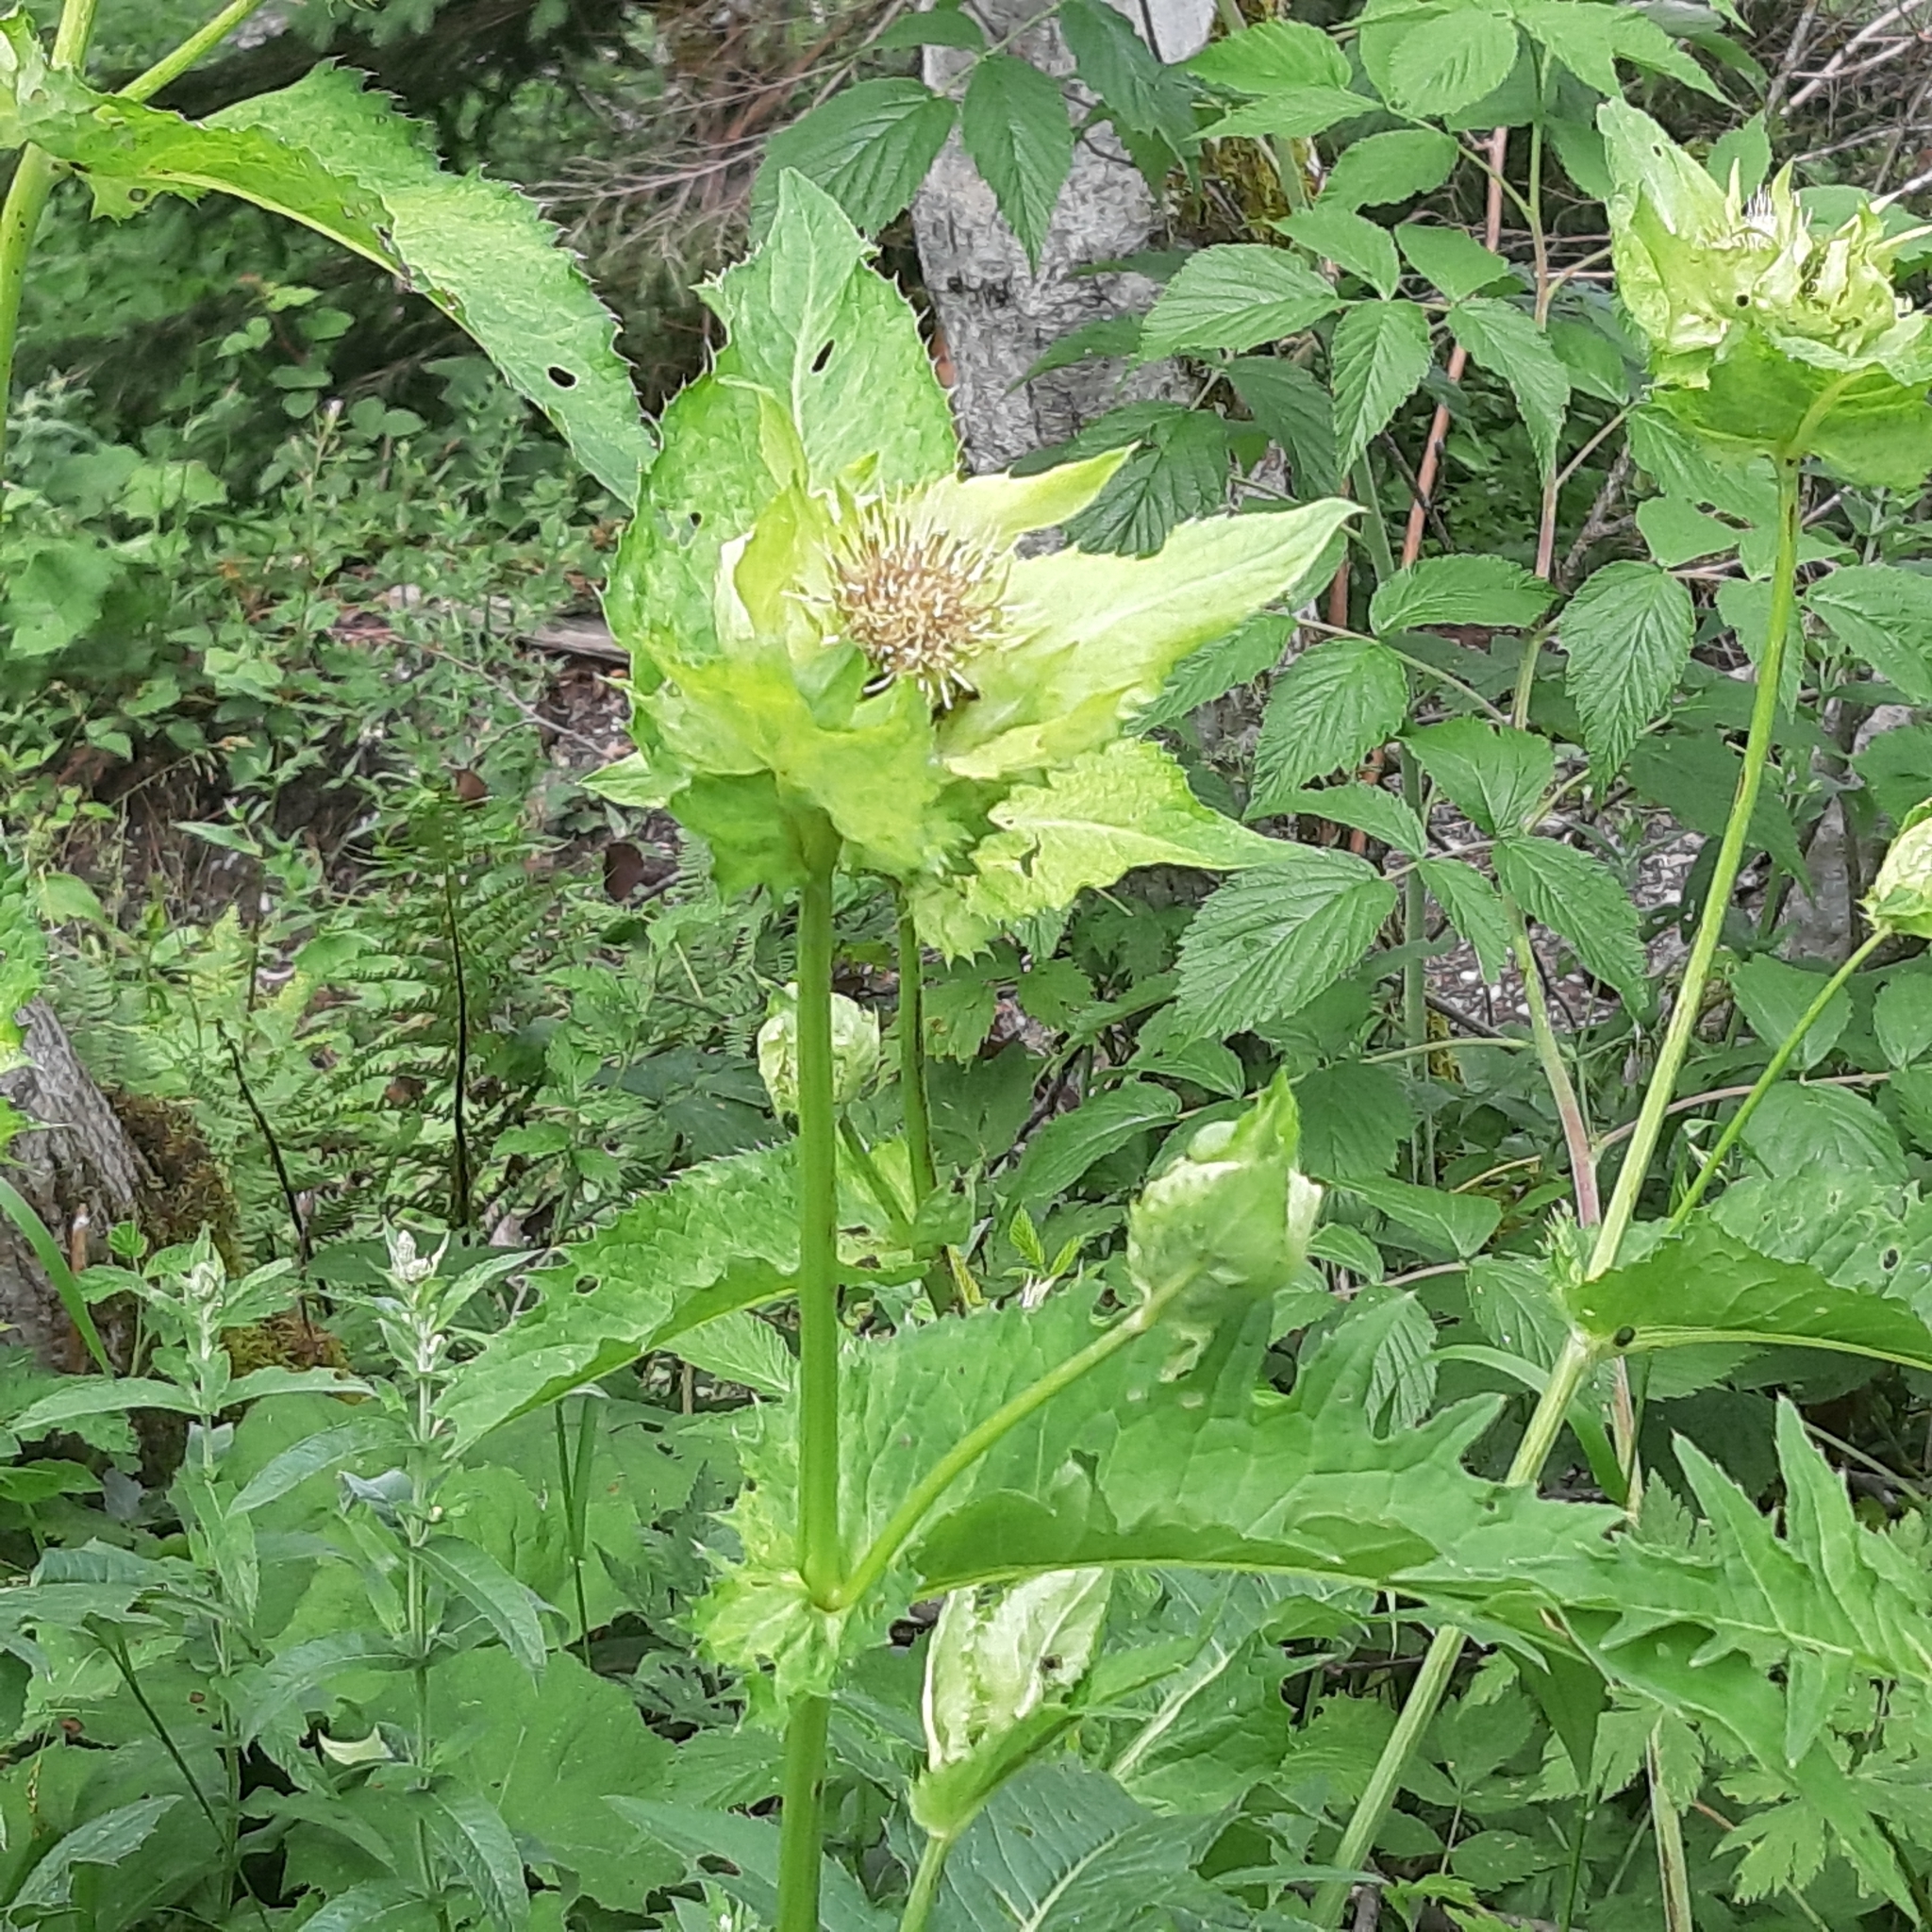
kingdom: Plantae
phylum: Tracheophyta
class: Magnoliopsida
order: Asterales
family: Asteraceae
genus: Cirsium
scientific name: Cirsium oleraceum
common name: Cabbage thistle
